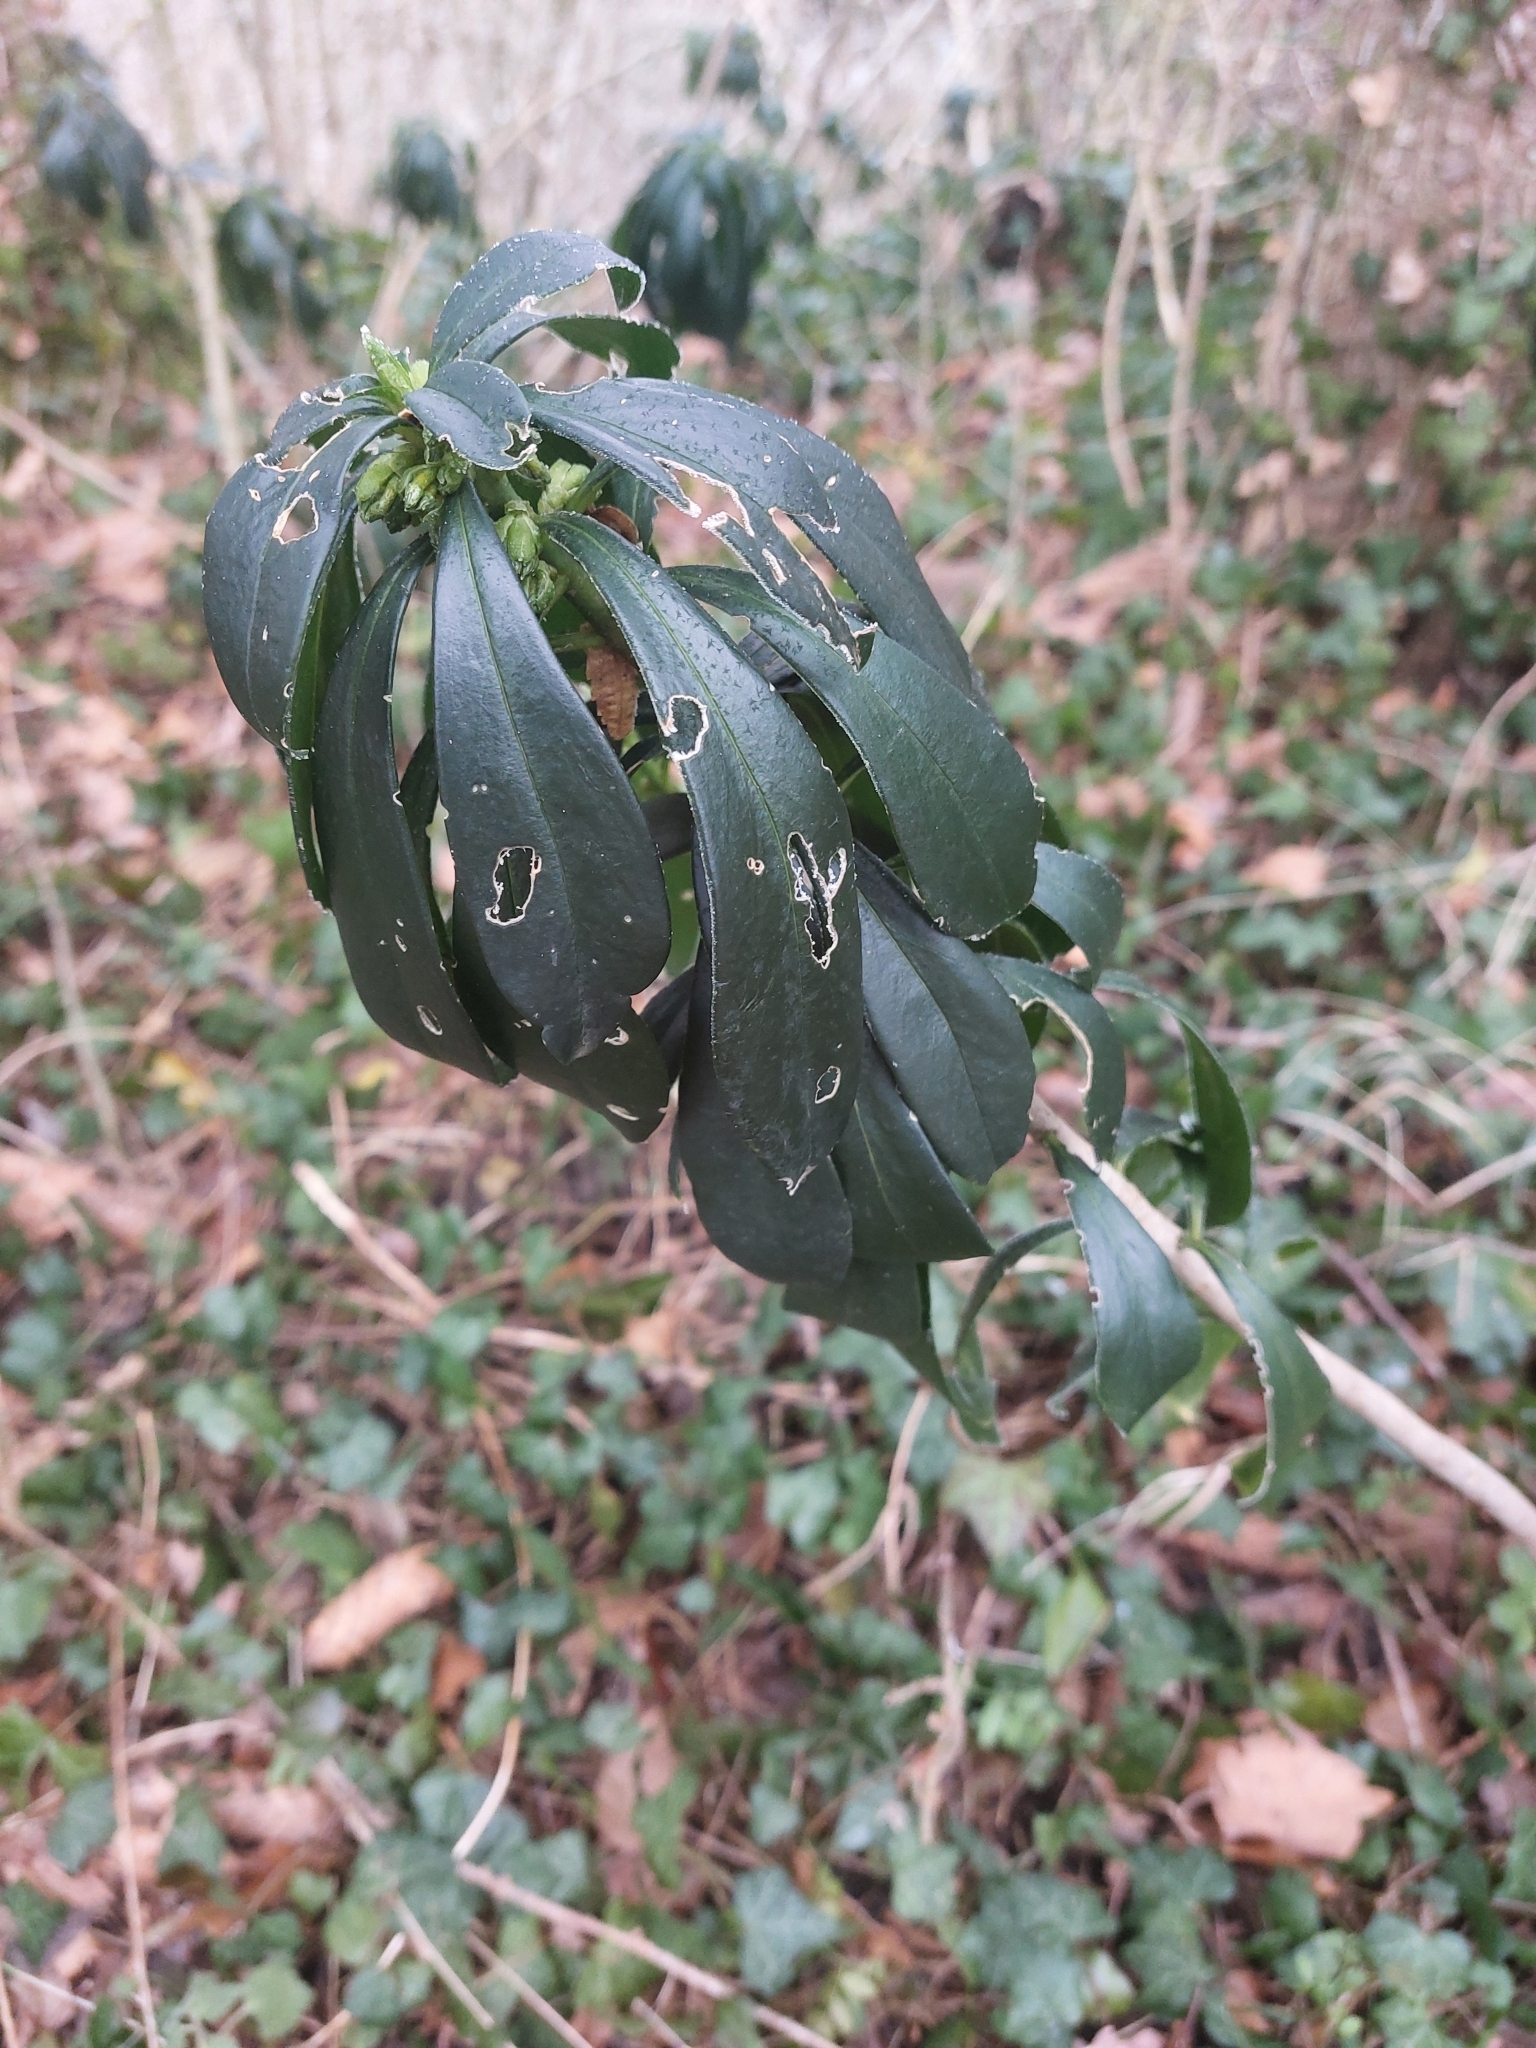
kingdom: Plantae
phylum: Tracheophyta
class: Magnoliopsida
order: Malvales
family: Thymelaeaceae
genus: Daphne
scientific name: Daphne laureola
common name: Spurge-laurel
